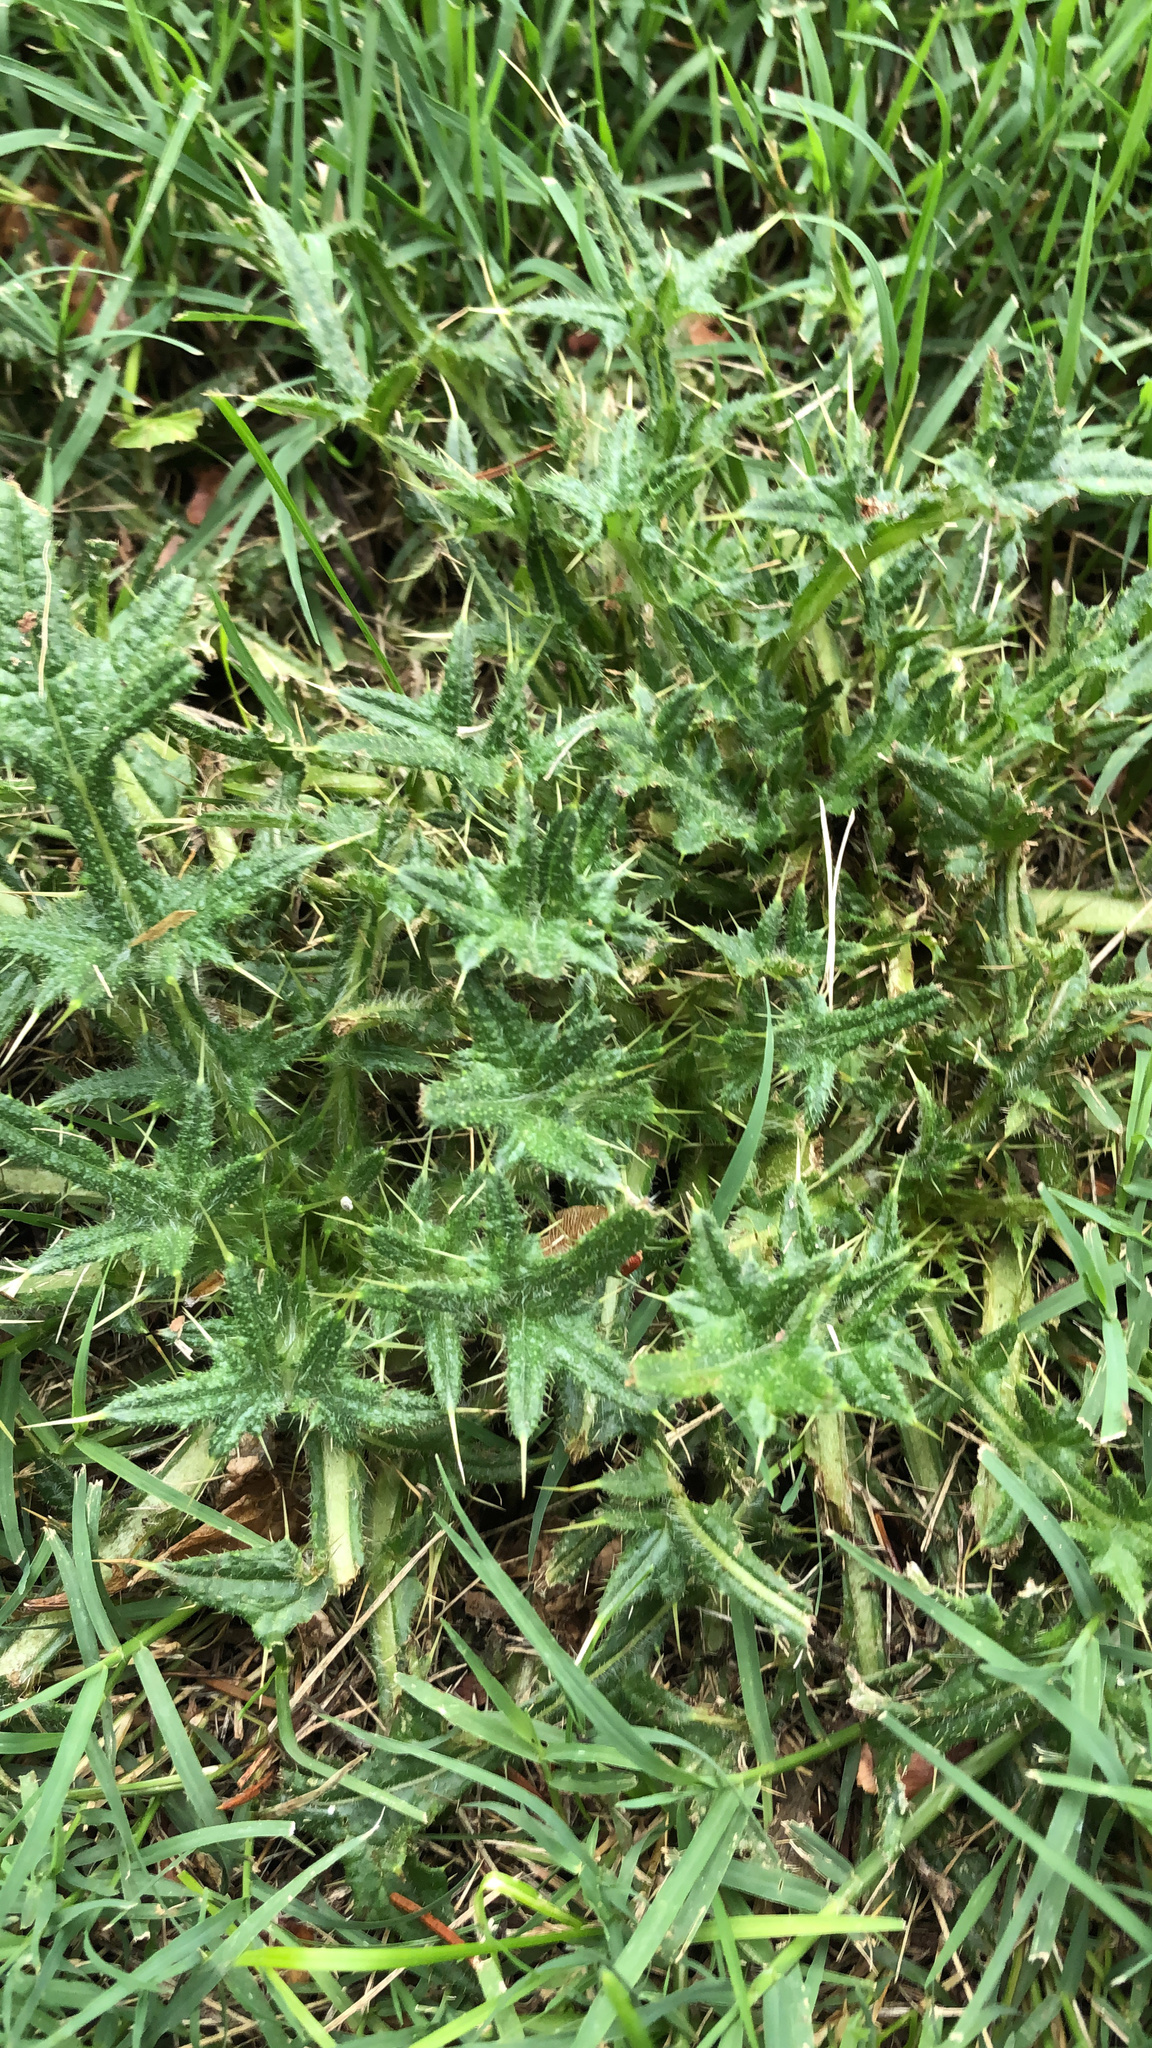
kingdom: Plantae
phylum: Tracheophyta
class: Magnoliopsida
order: Asterales
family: Asteraceae
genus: Cirsium
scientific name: Cirsium vulgare
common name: Bull thistle
